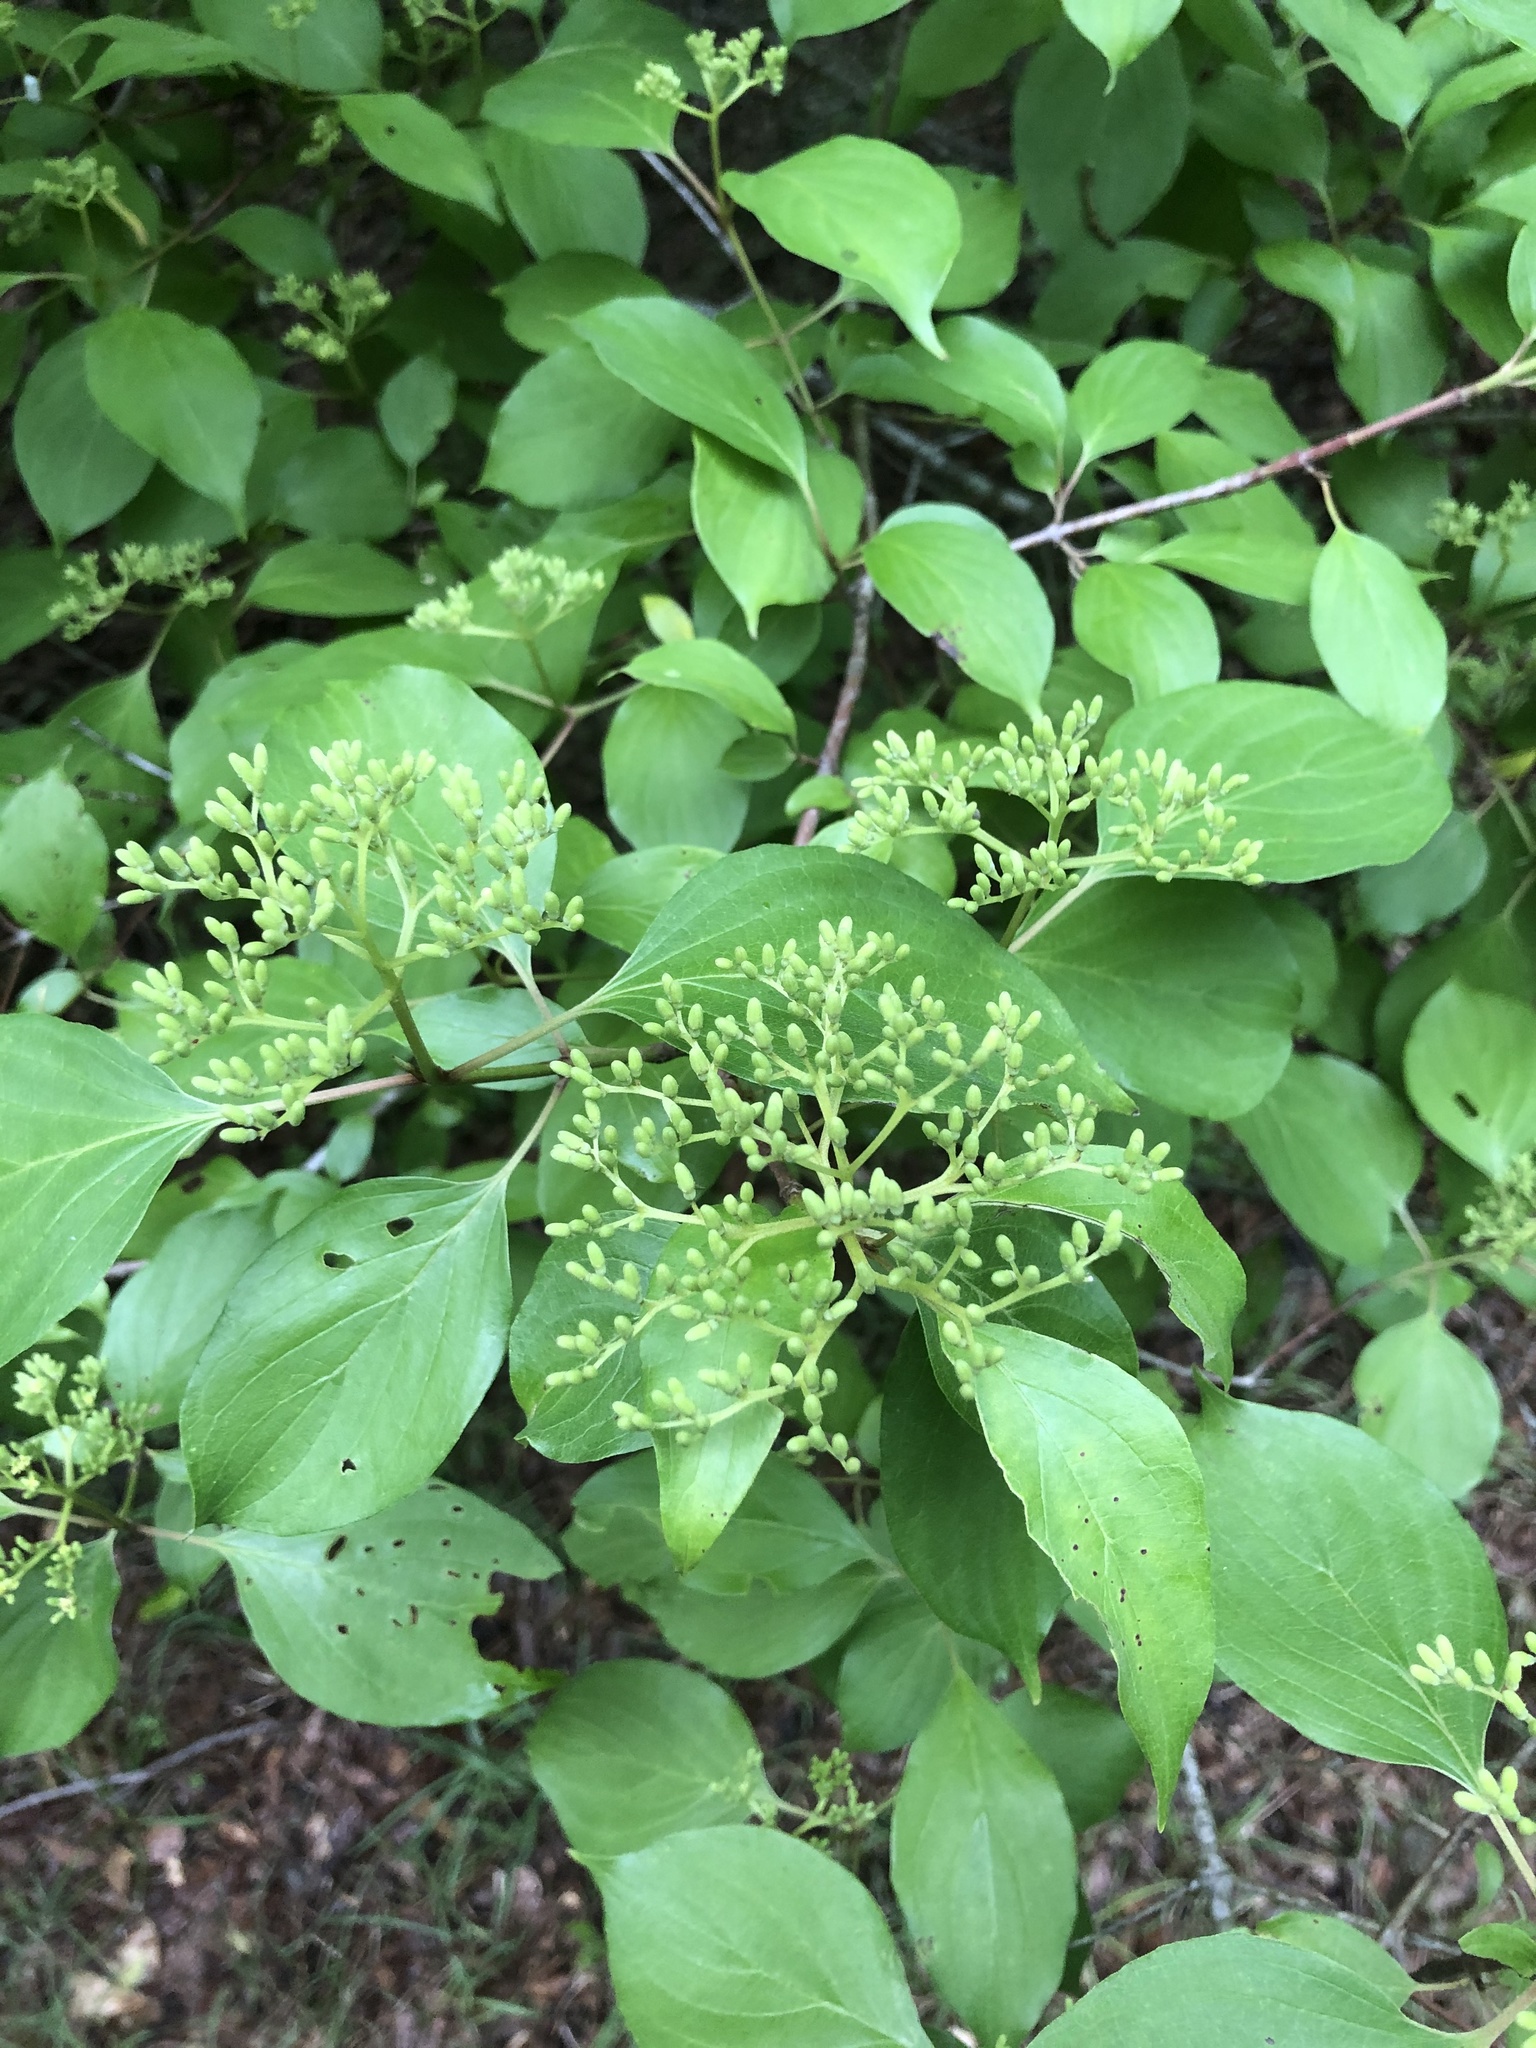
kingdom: Plantae
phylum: Tracheophyta
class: Magnoliopsida
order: Cornales
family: Cornaceae
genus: Cornus
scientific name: Cornus amomum
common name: Silky dogwood
